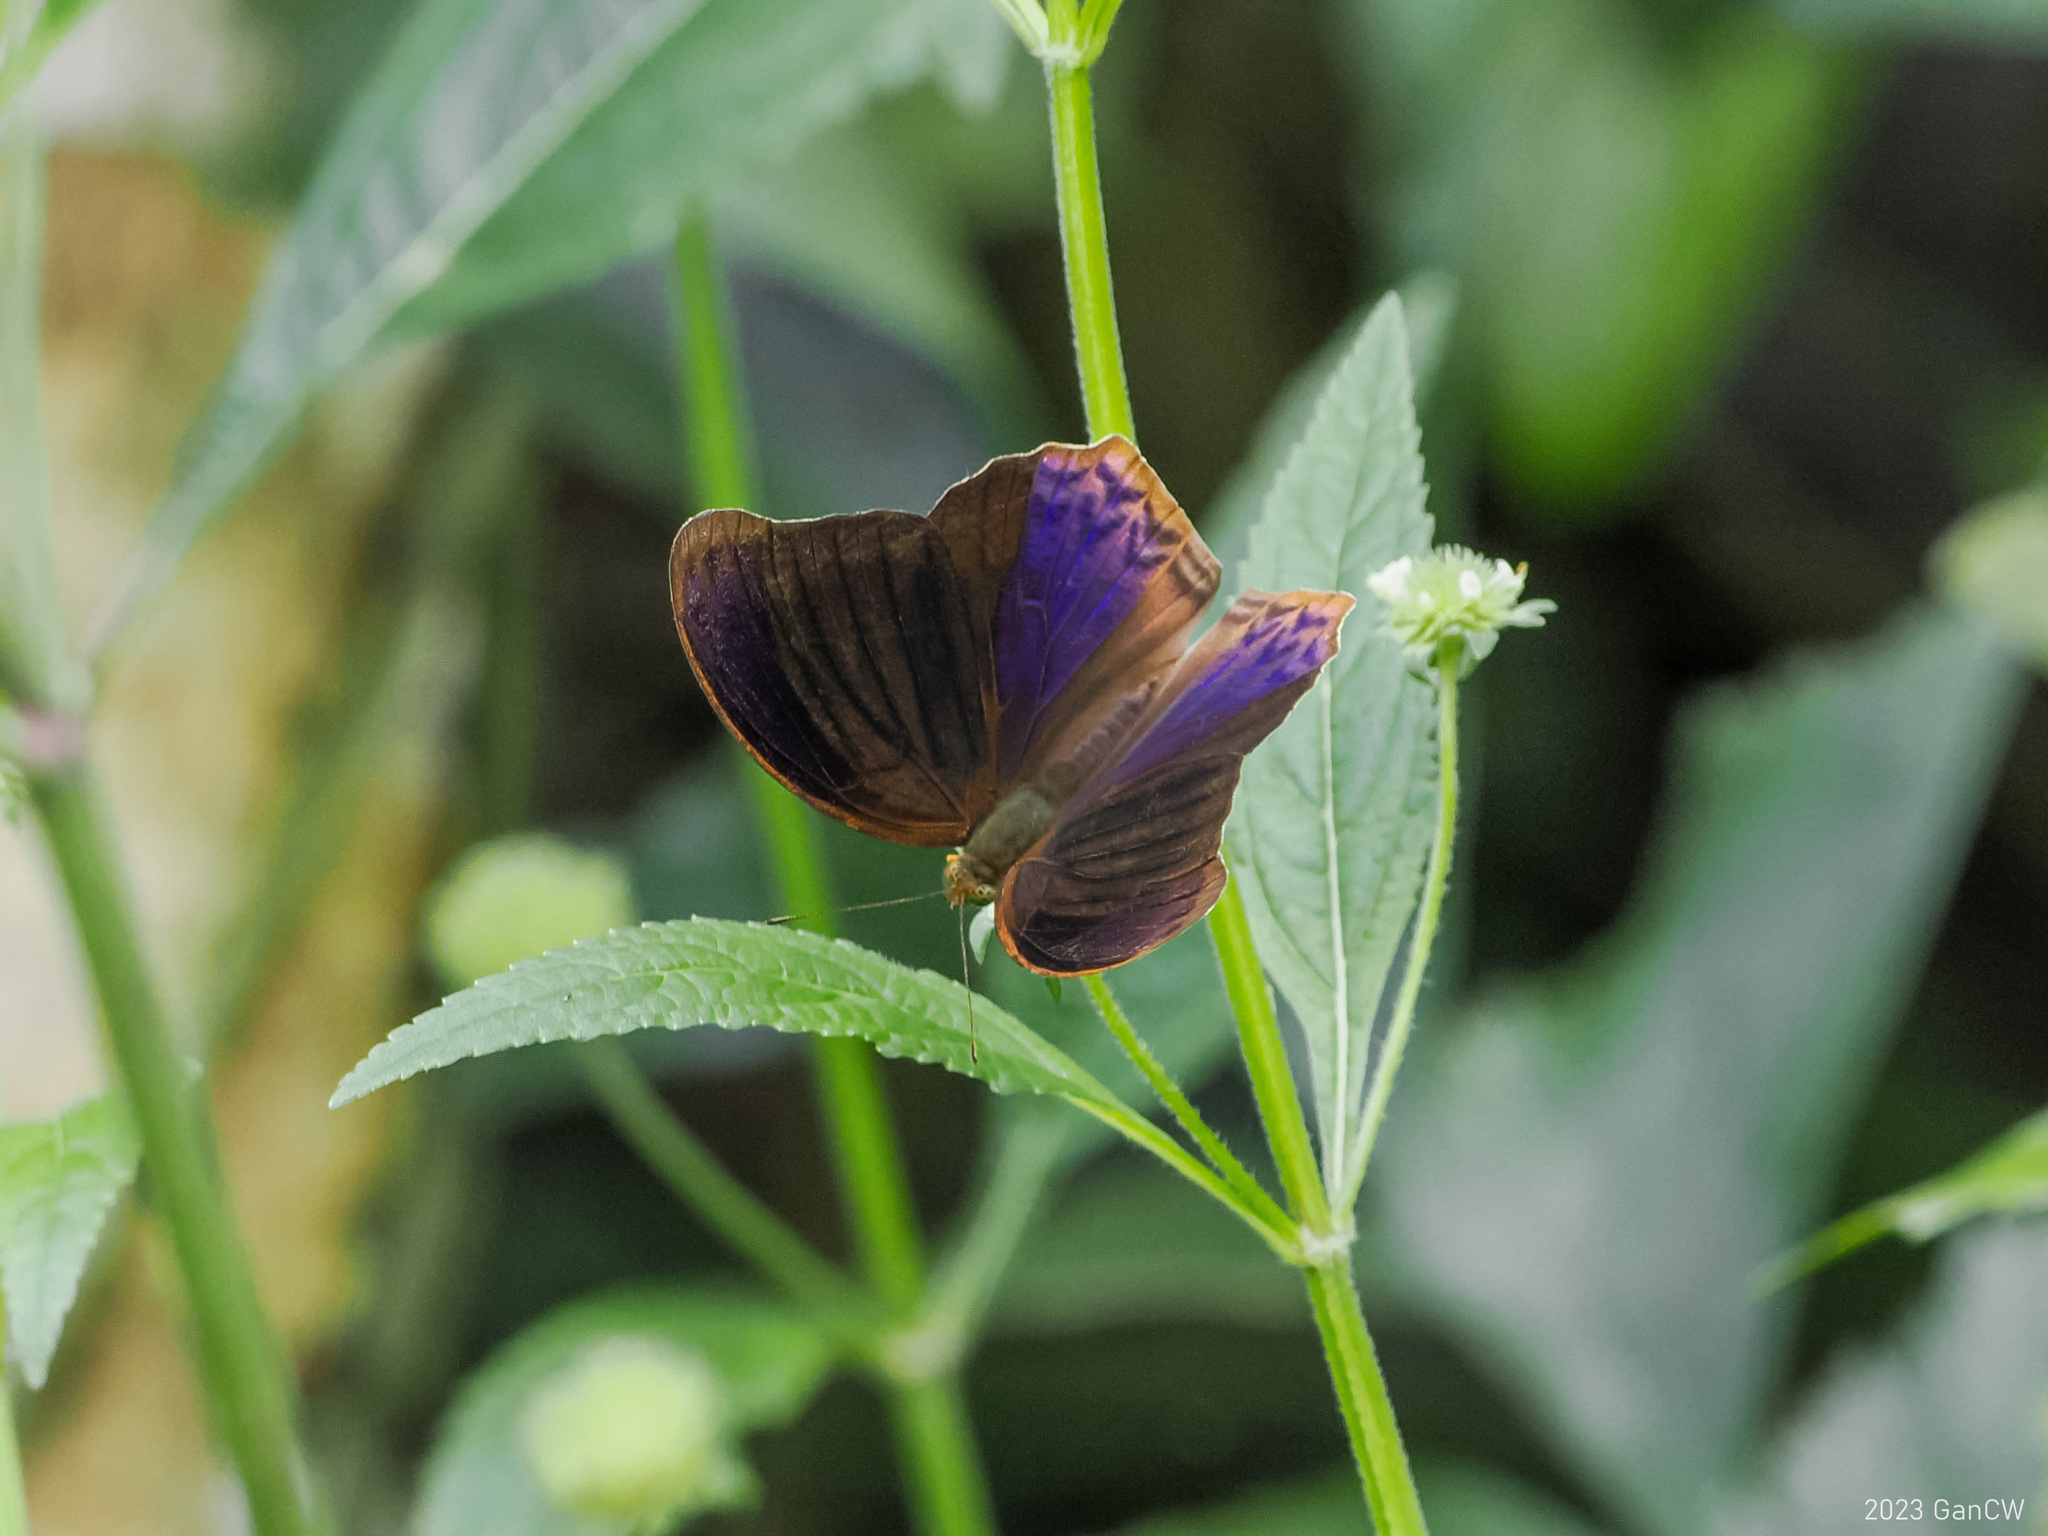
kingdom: Animalia
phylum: Arthropoda
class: Insecta
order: Lepidoptera
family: Nymphalidae
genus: Terinos
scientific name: Terinos taxiles
